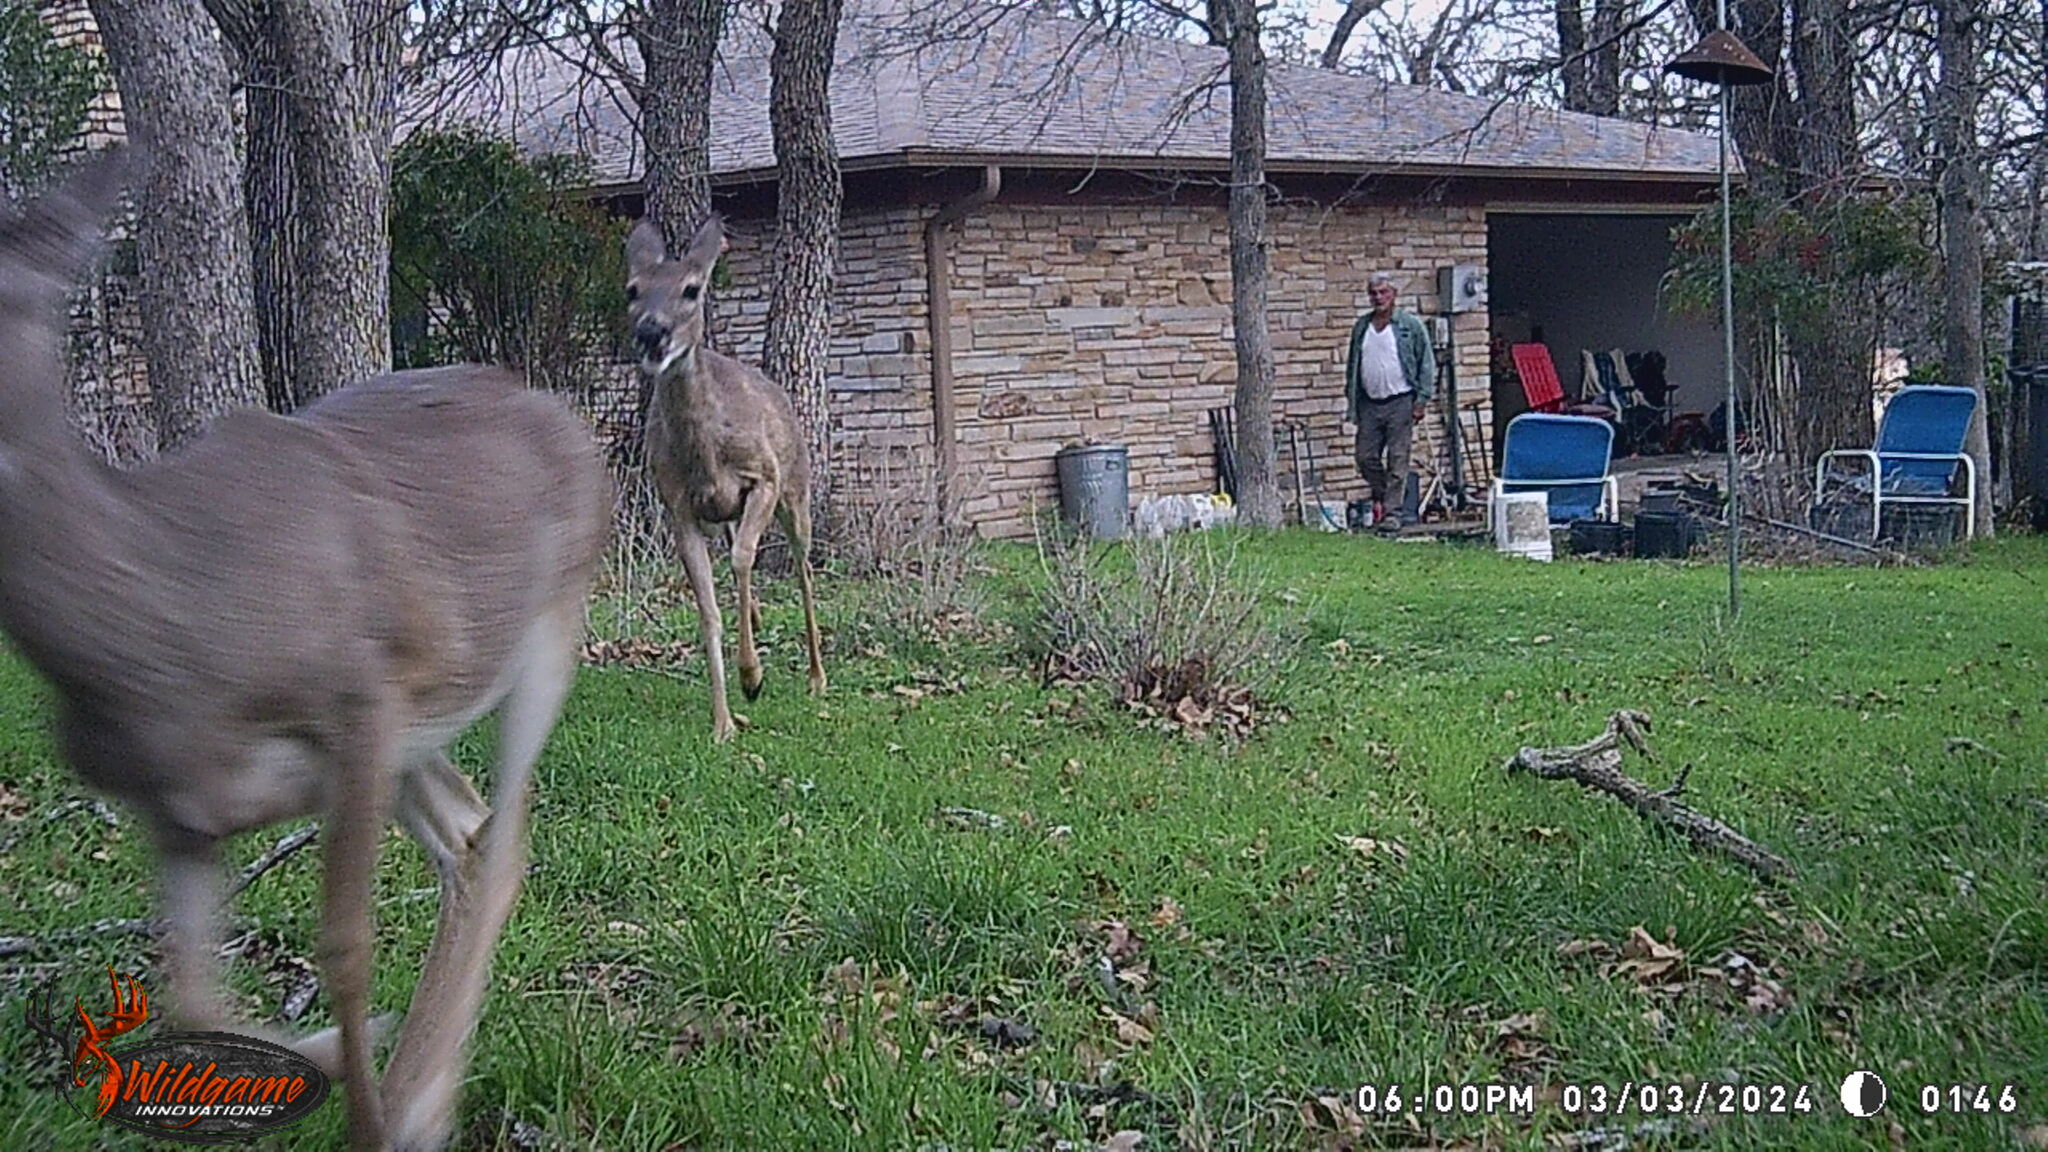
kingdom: Animalia
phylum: Chordata
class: Mammalia
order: Artiodactyla
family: Cervidae
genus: Odocoileus
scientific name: Odocoileus virginianus
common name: White-tailed deer
